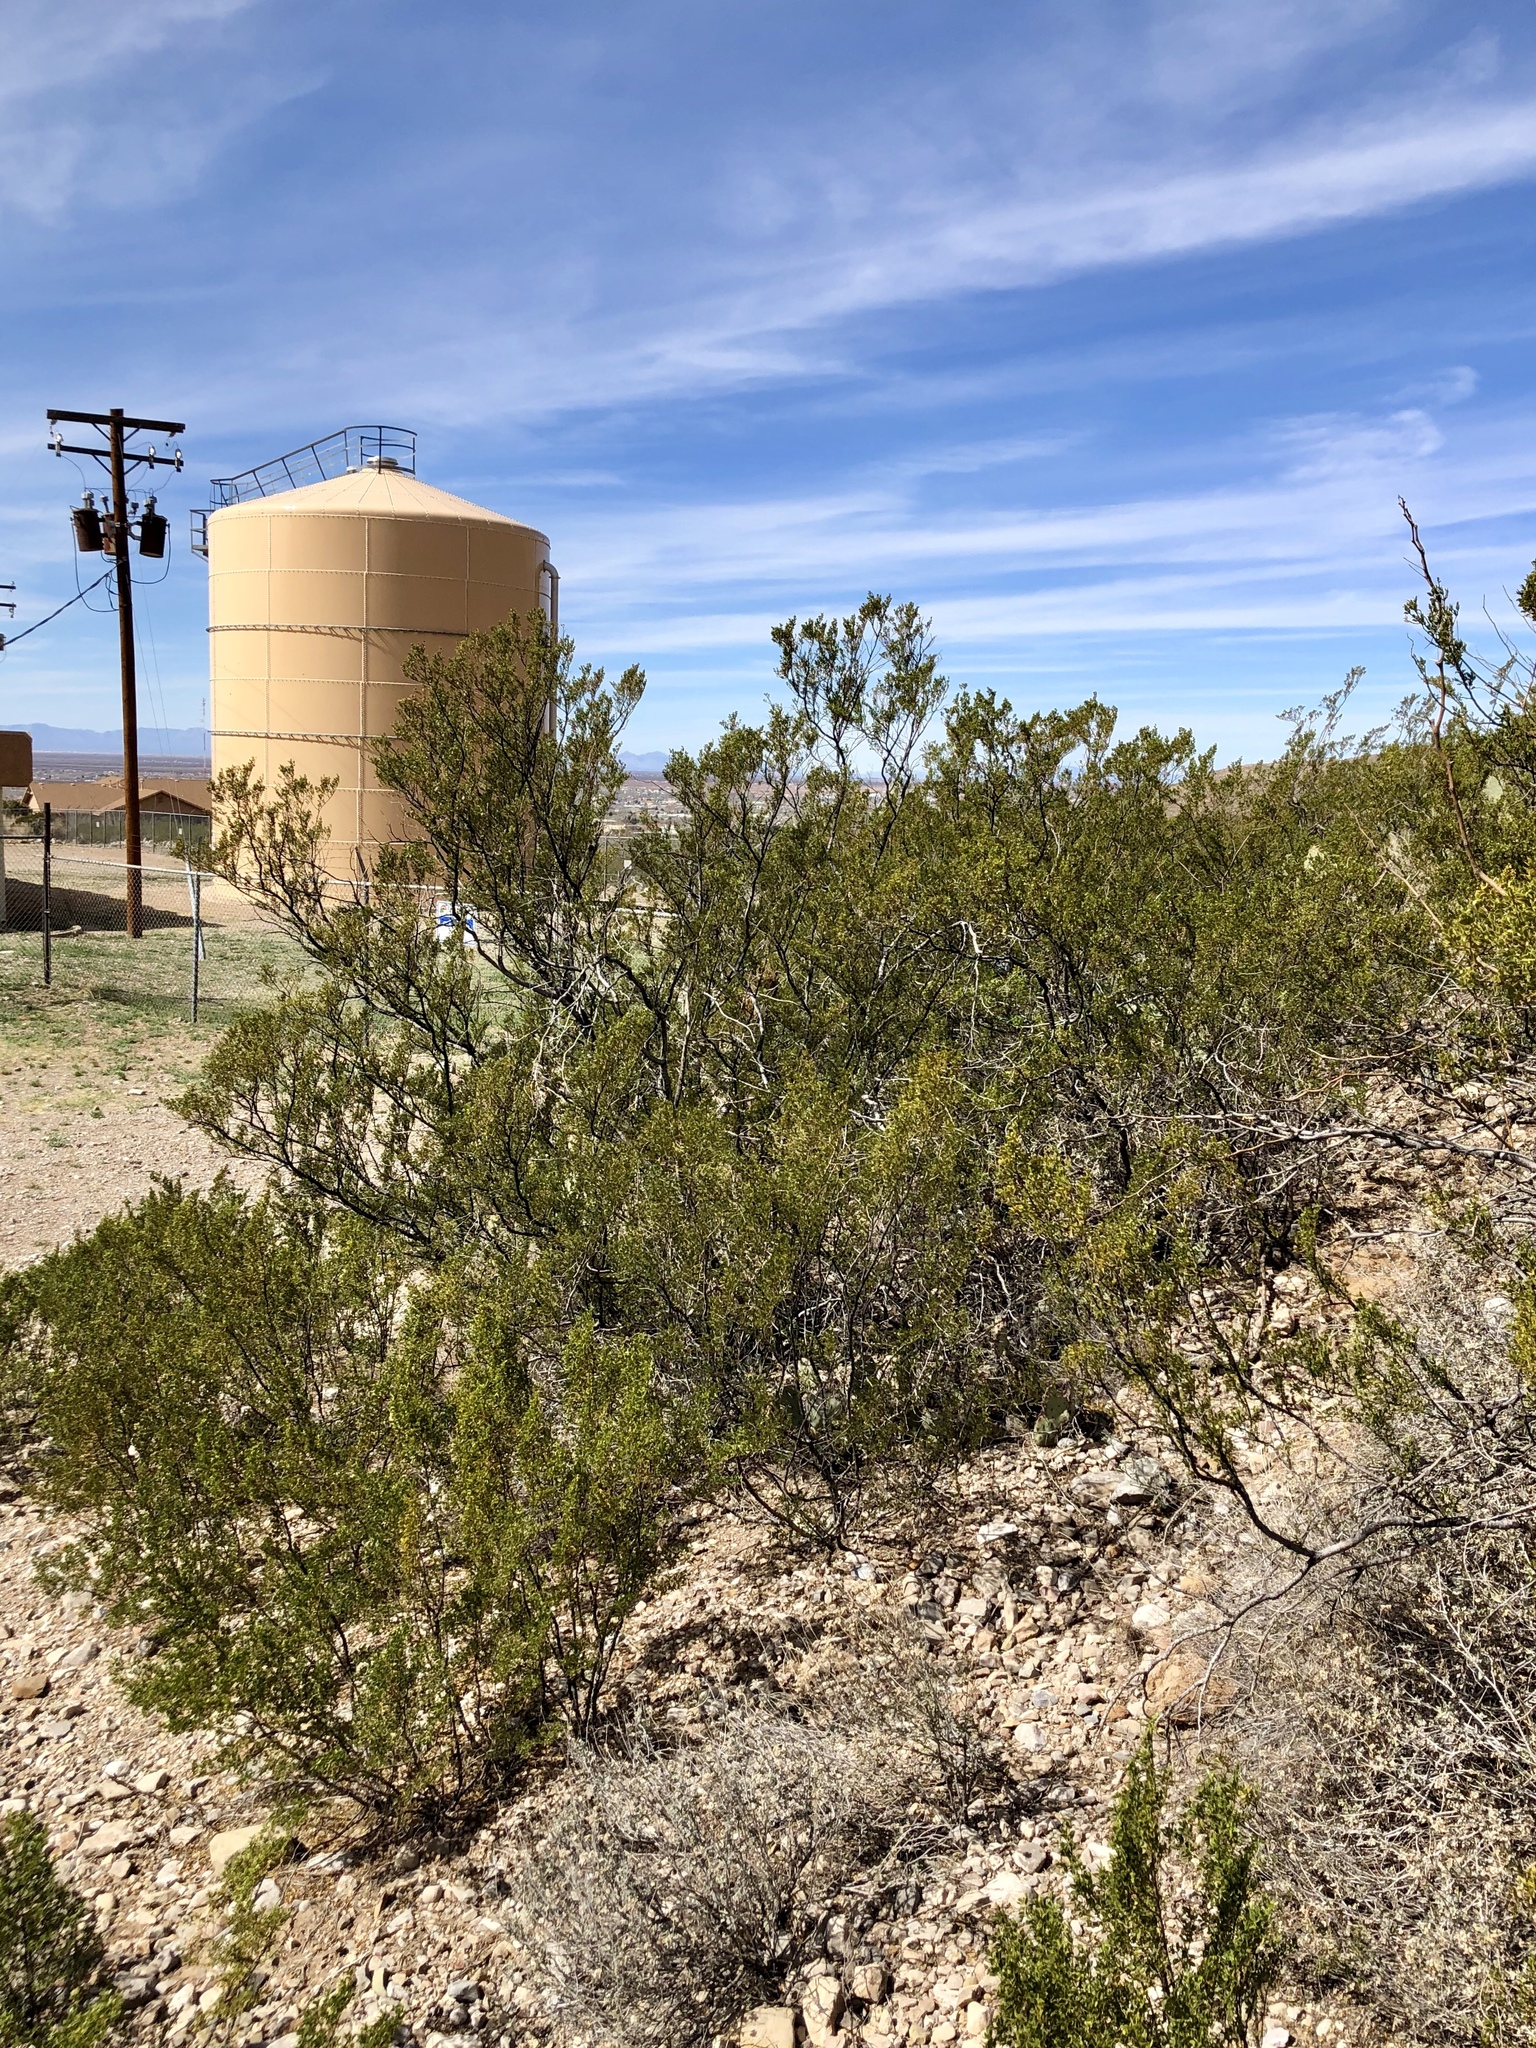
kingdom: Plantae
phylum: Tracheophyta
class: Magnoliopsida
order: Zygophyllales
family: Zygophyllaceae
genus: Larrea
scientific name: Larrea tridentata
